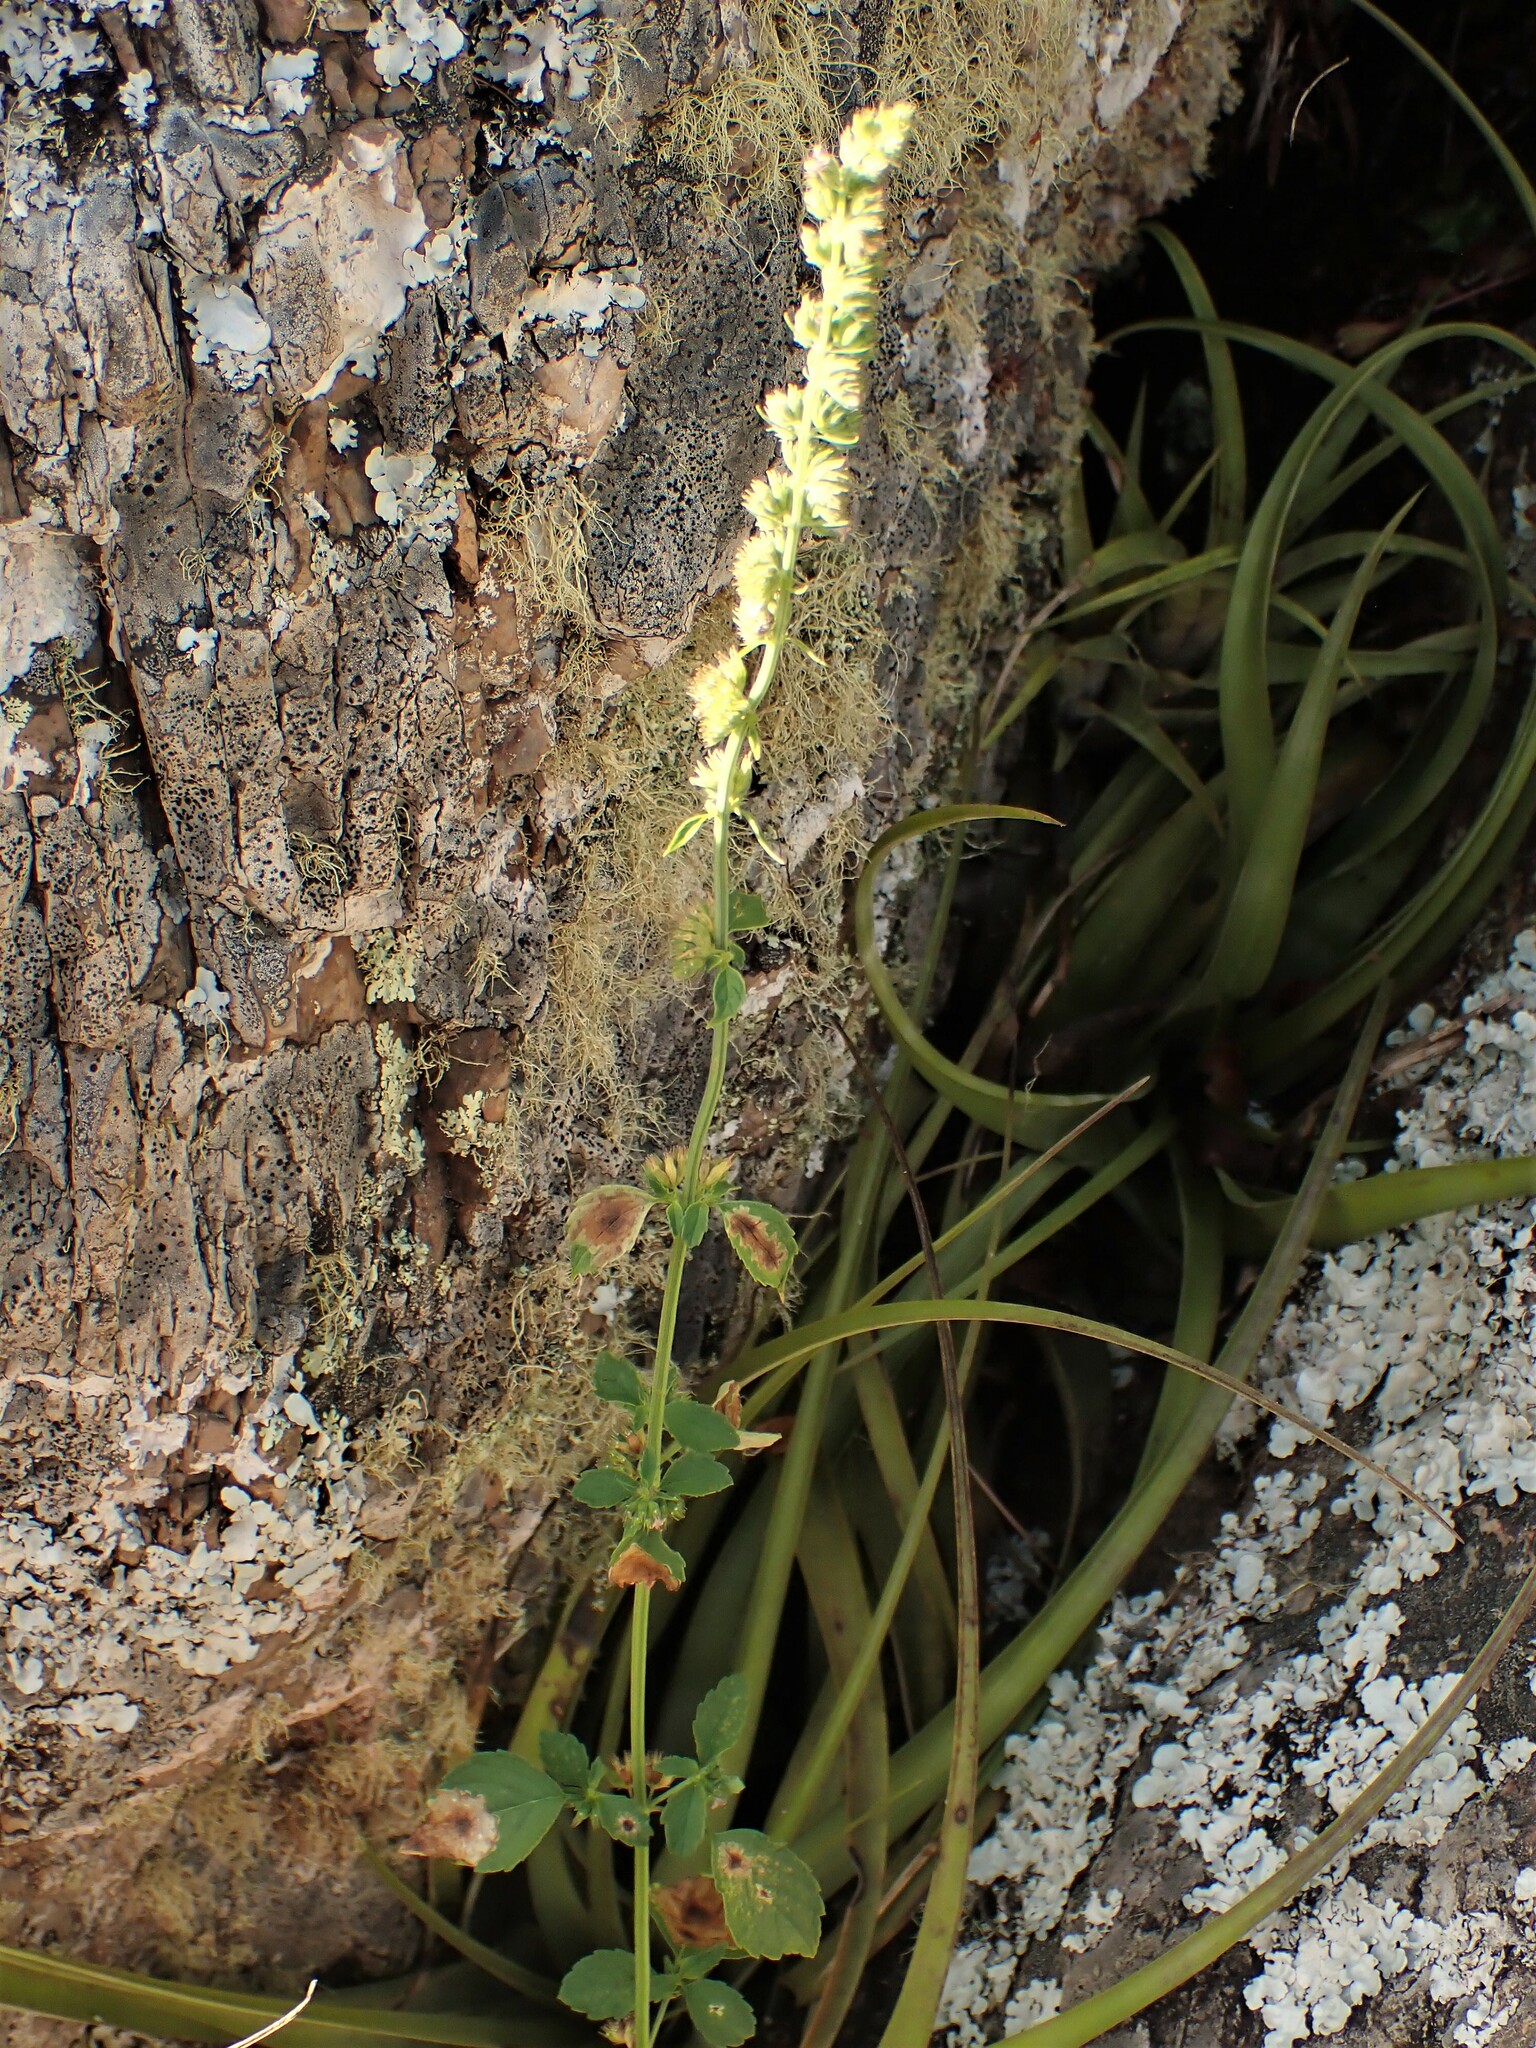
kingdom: Plantae
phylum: Tracheophyta
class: Magnoliopsida
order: Lamiales
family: Lamiaceae
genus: Mesosphaerum
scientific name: Mesosphaerum pectinatum
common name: Comb hyptis
